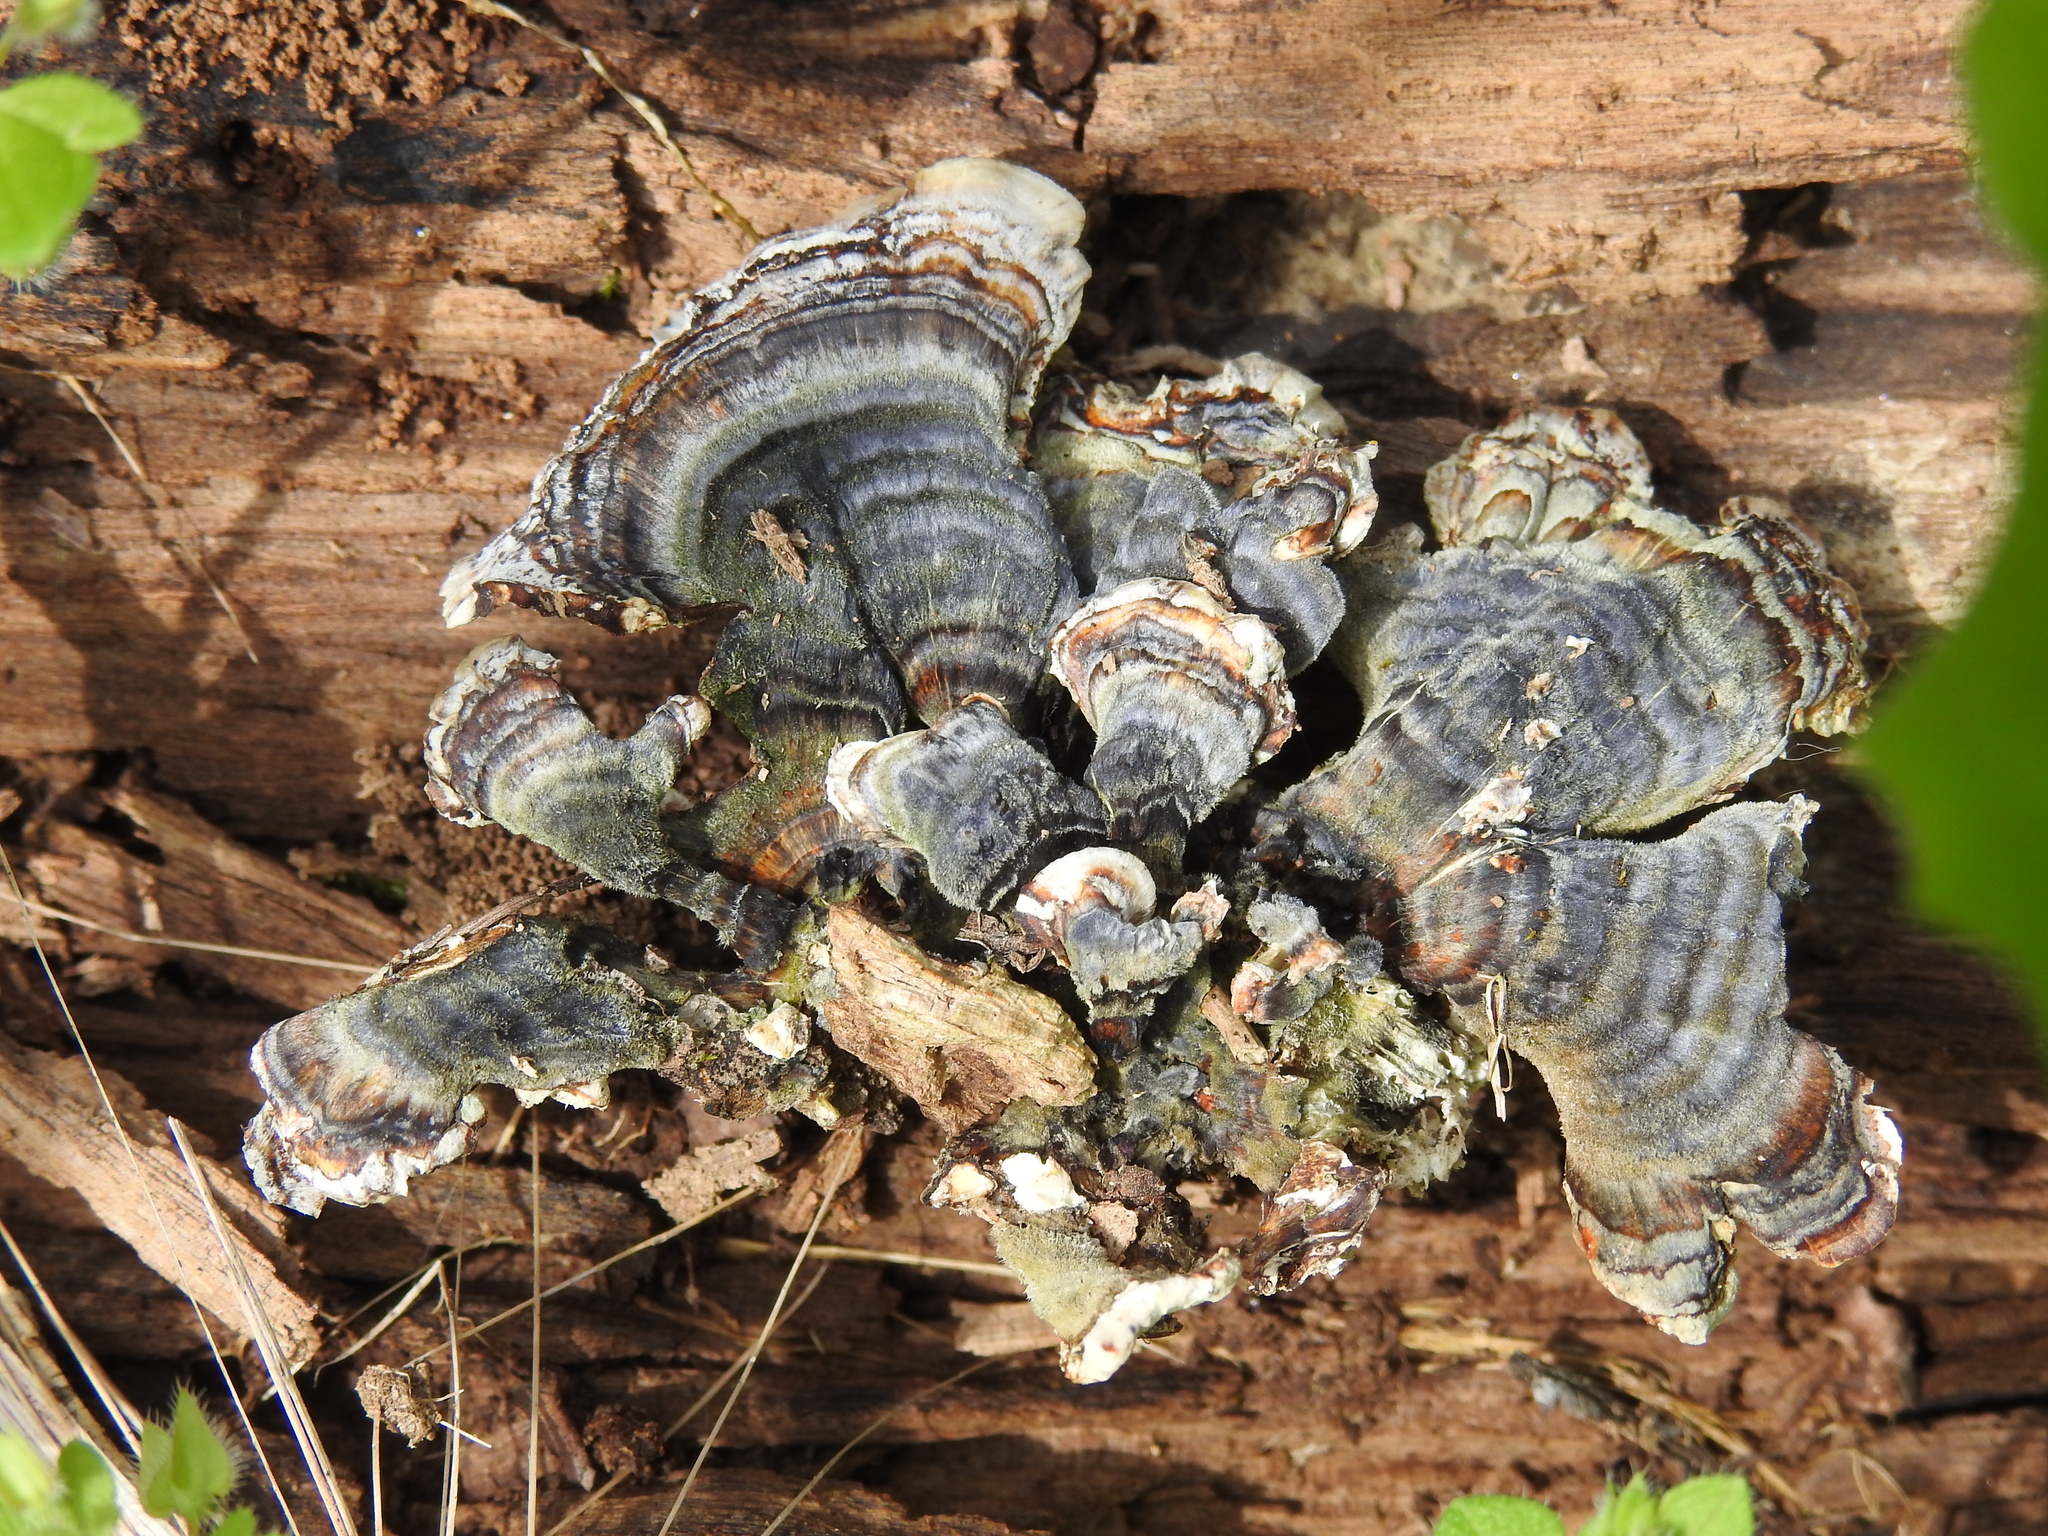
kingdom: Fungi
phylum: Basidiomycota
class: Agaricomycetes
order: Polyporales
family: Polyporaceae
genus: Trametes
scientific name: Trametes versicolor
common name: Turkeytail
